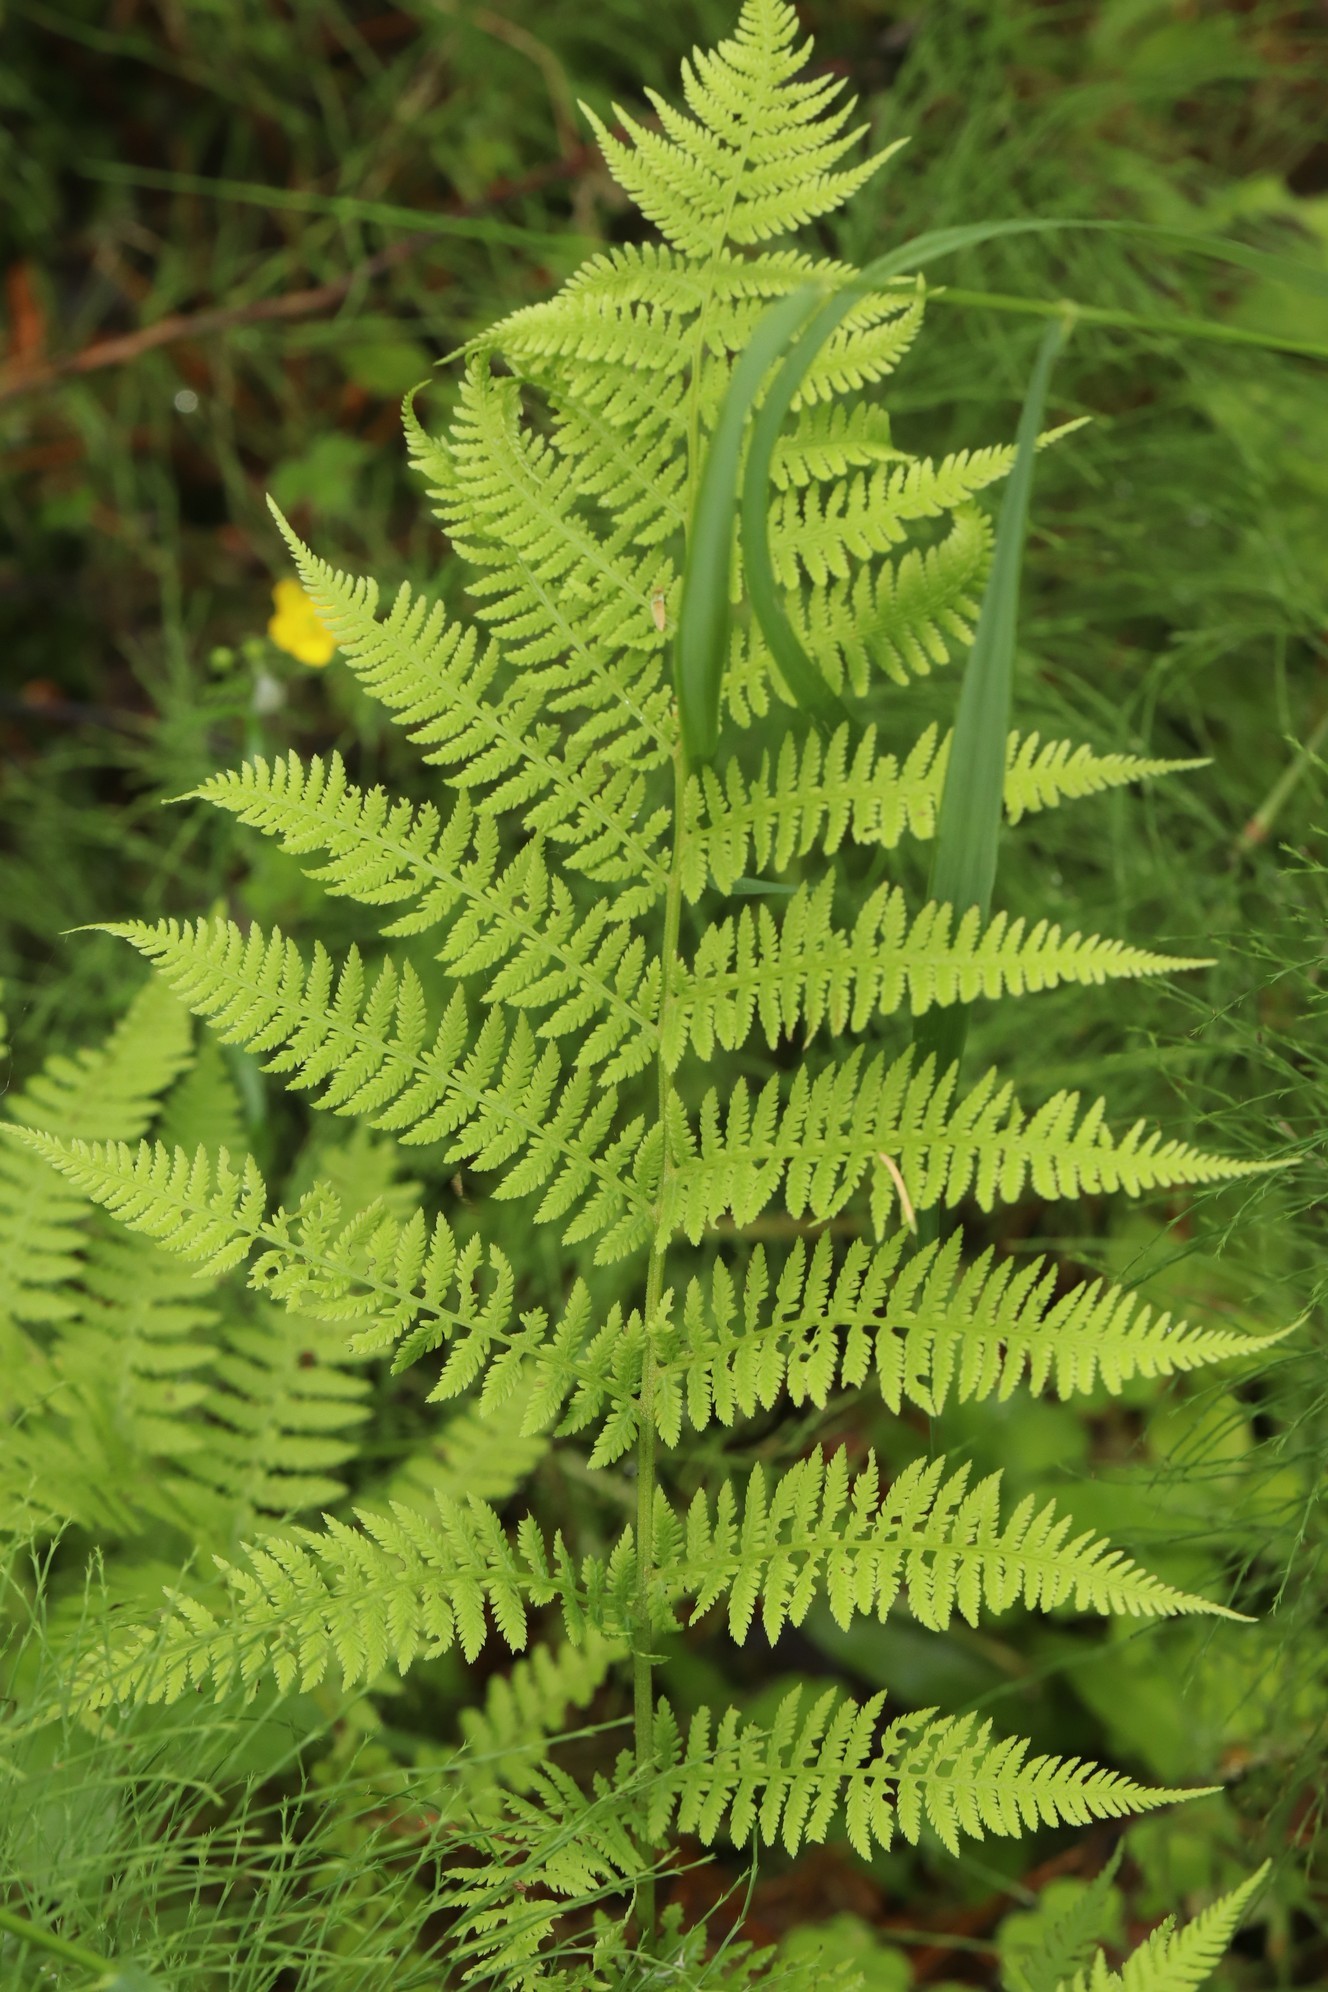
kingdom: Plantae
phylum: Tracheophyta
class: Polypodiopsida
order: Polypodiales
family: Athyriaceae
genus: Athyrium
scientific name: Athyrium filix-femina
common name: Lady fern
